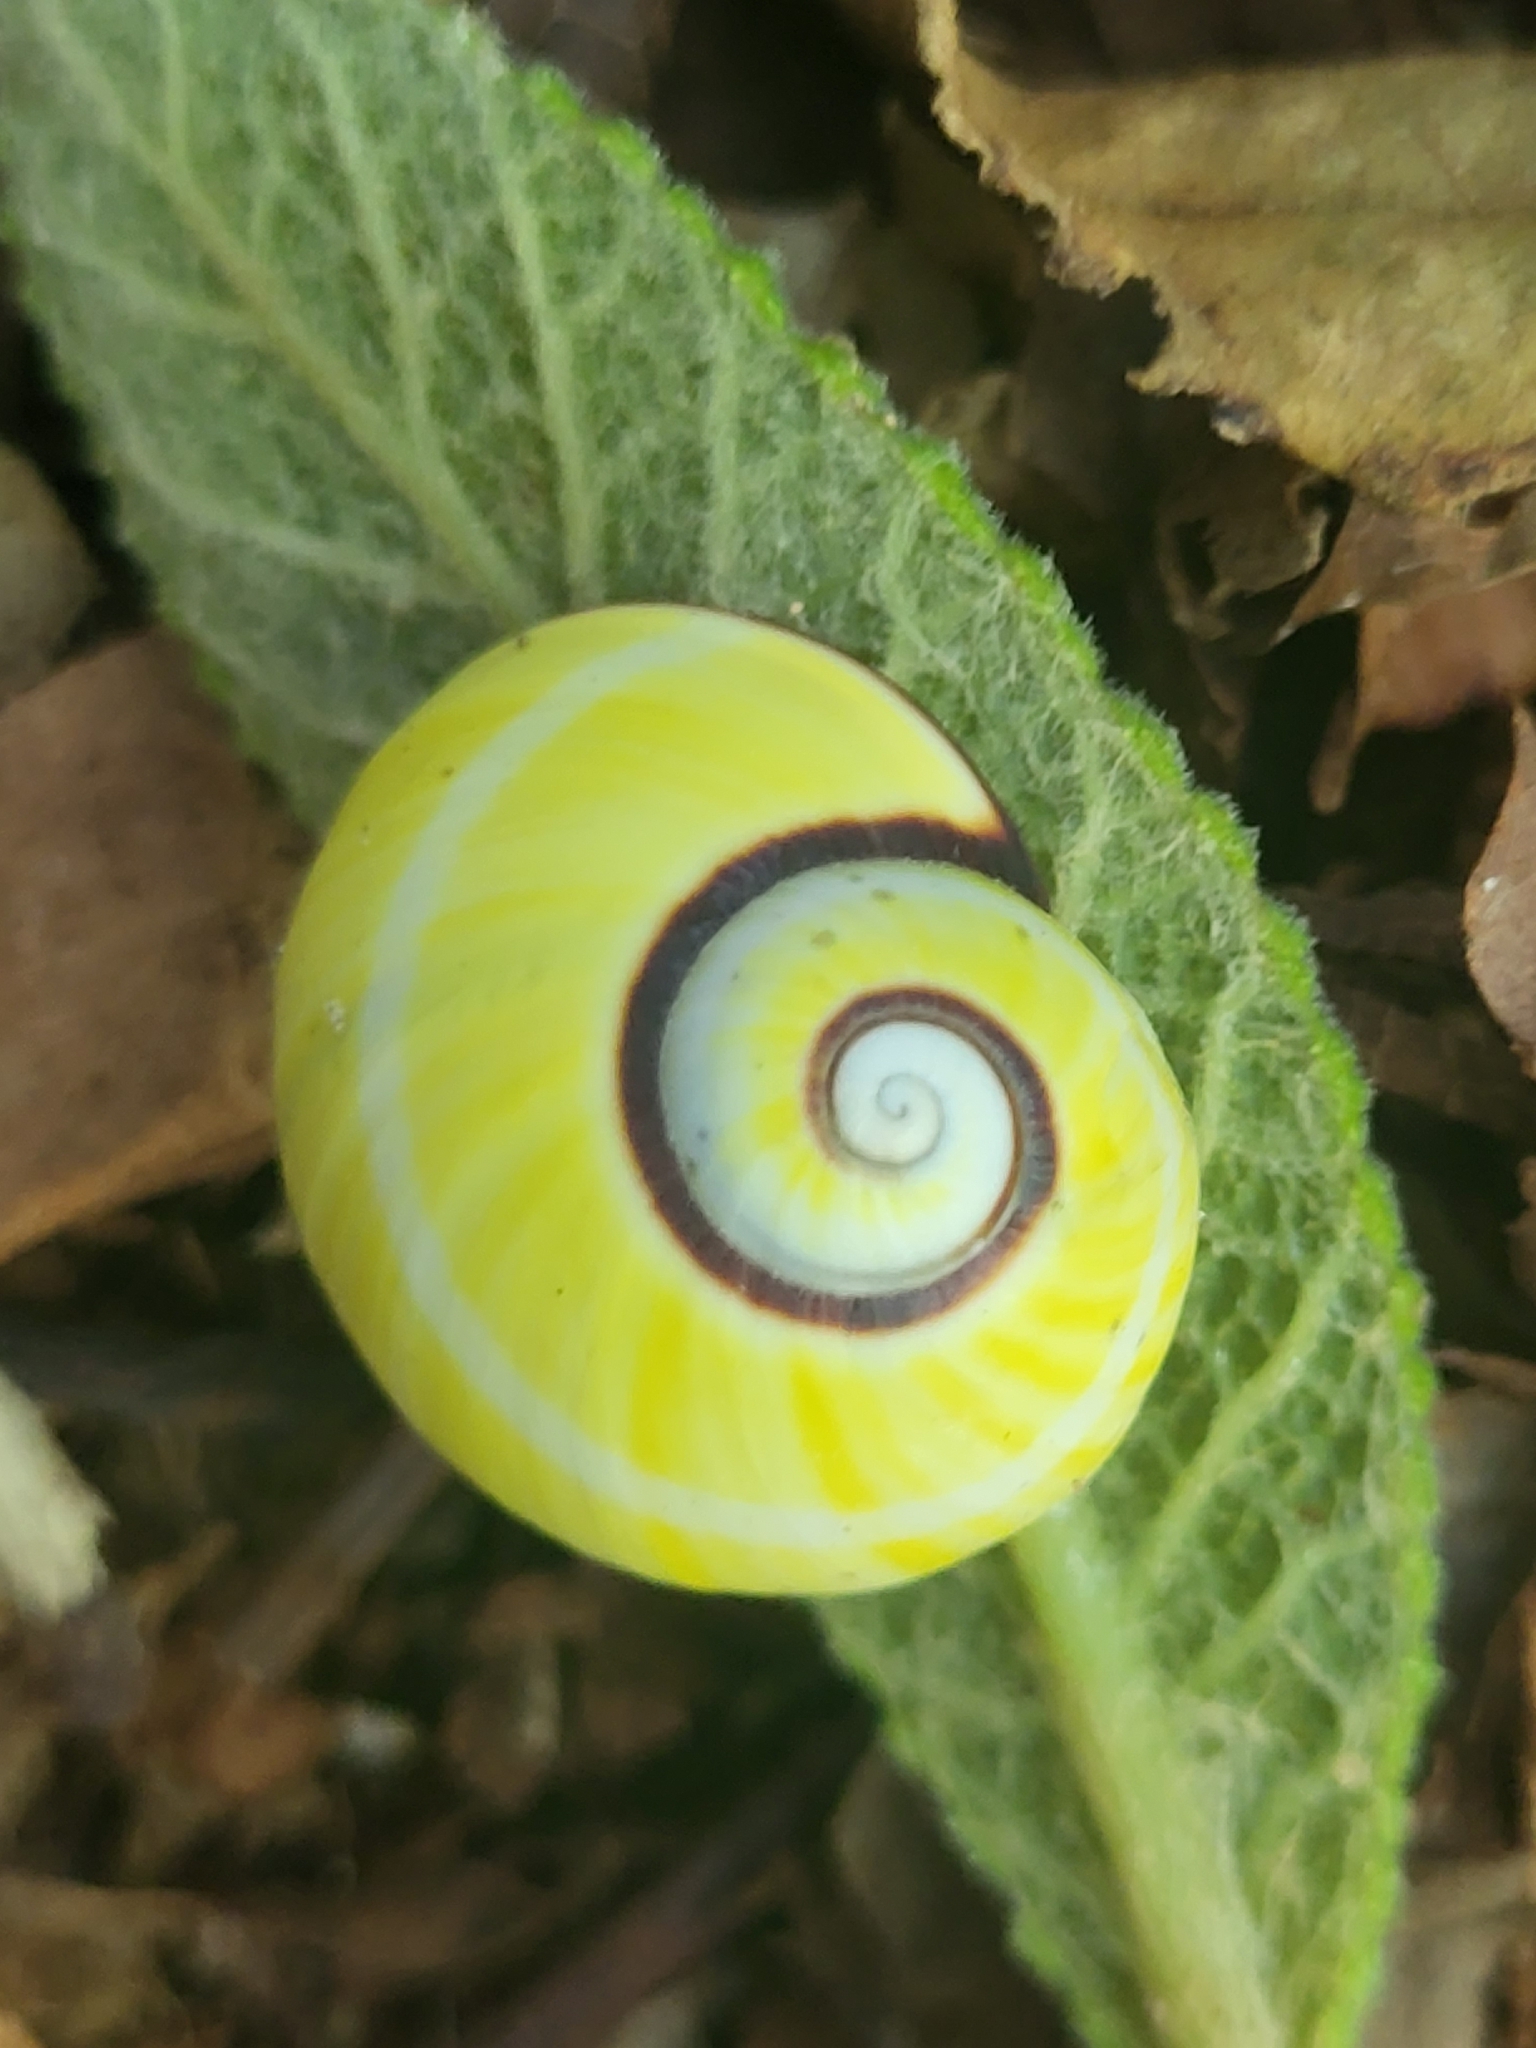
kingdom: Animalia
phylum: Mollusca
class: Gastropoda
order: Stylommatophora
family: Cepolidae
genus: Polymita
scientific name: Polymita picta
